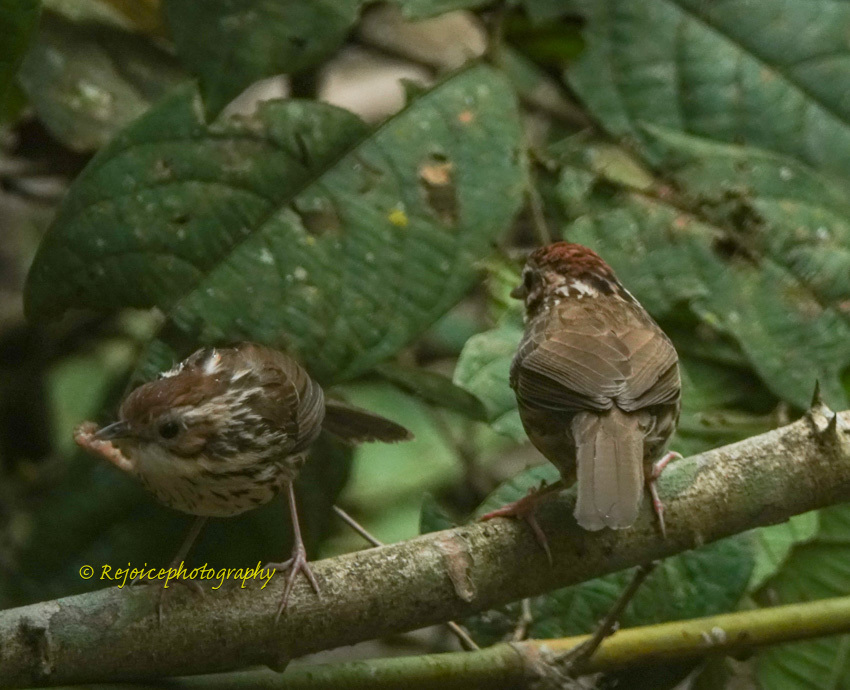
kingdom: Animalia
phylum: Chordata
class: Aves
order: Passeriformes
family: Pellorneidae
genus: Pellorneum
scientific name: Pellorneum ruficeps
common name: Puff-throated babbler
